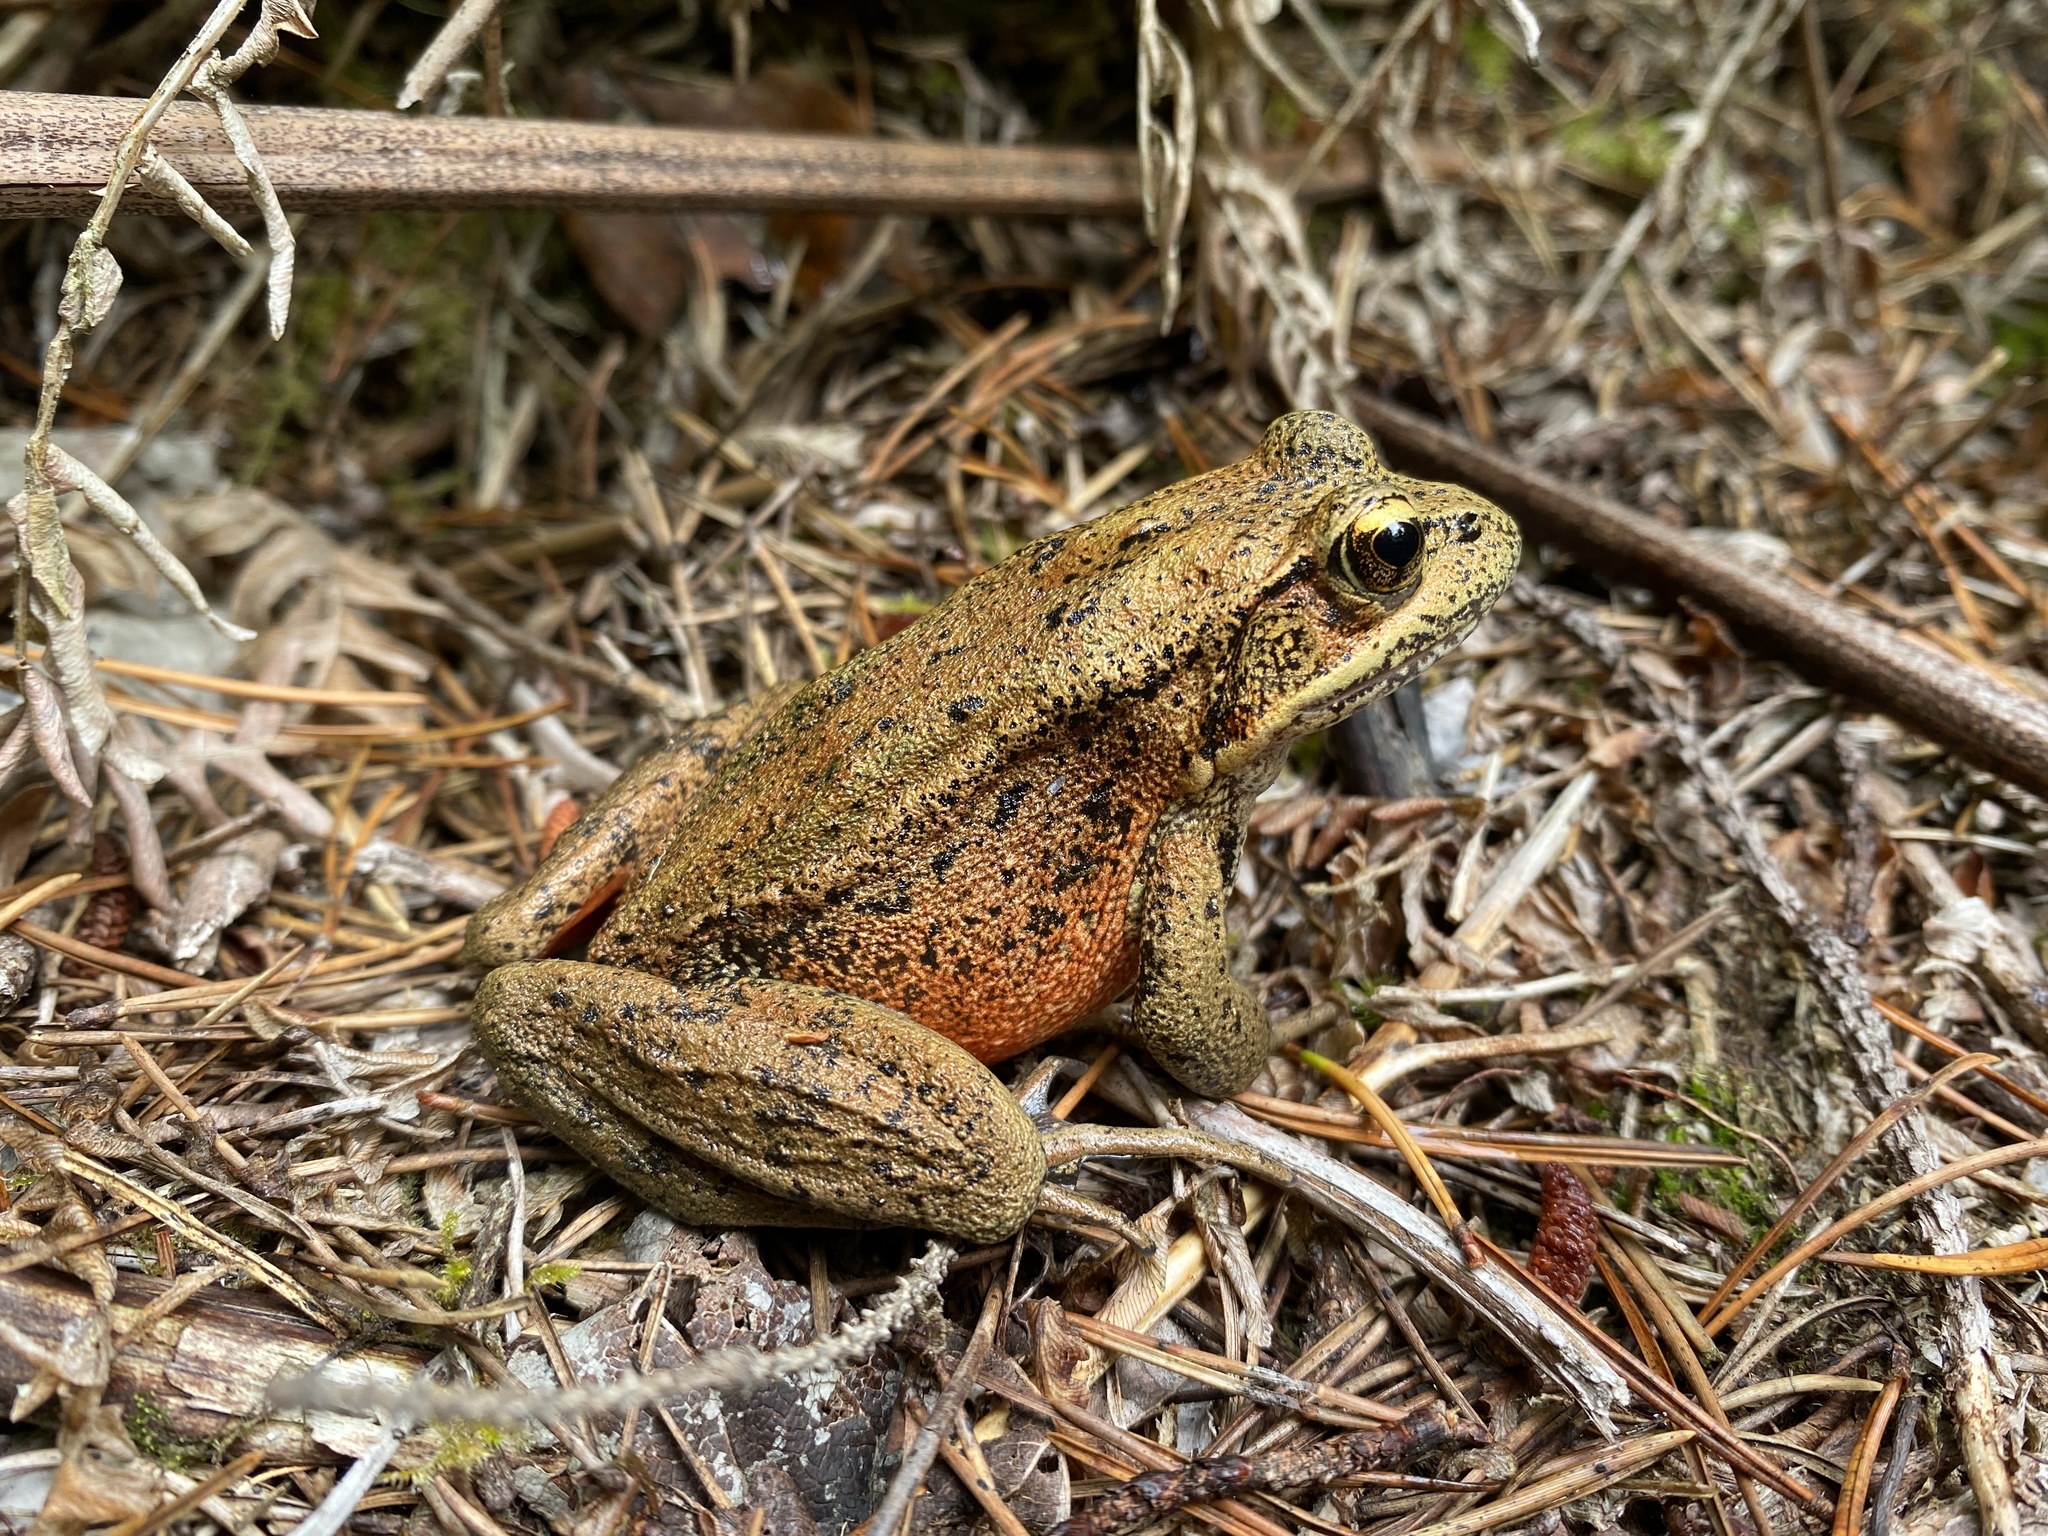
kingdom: Animalia
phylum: Chordata
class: Amphibia
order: Anura
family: Ranidae
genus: Rana
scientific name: Rana aurora
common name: Red-legged frog
